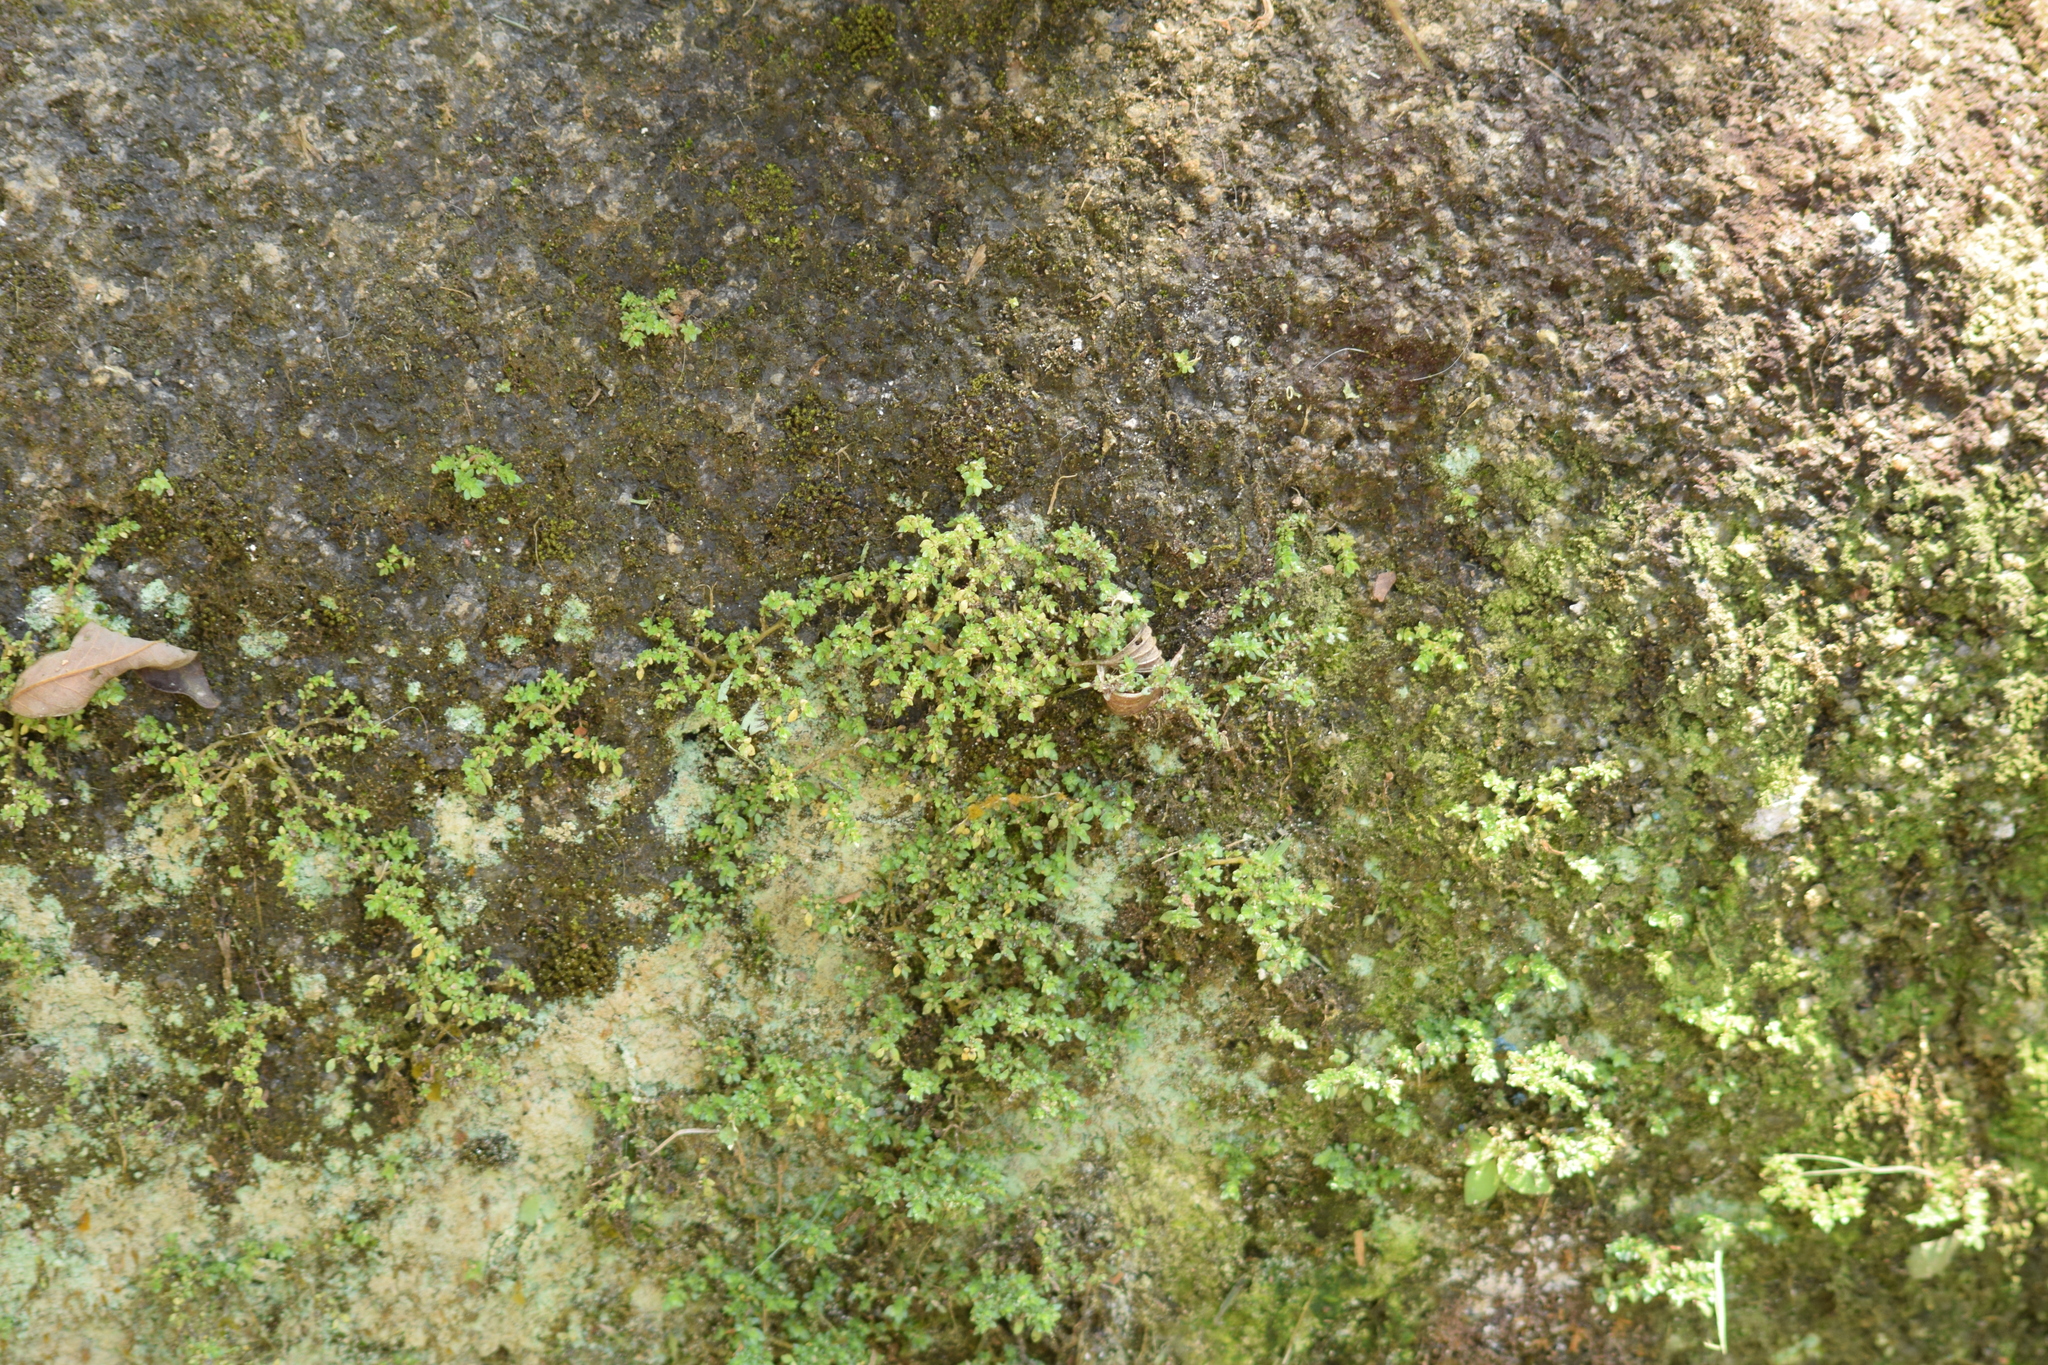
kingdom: Plantae
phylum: Tracheophyta
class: Magnoliopsida
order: Rosales
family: Urticaceae
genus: Pilea
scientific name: Pilea microphylla
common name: Artillery-plant
